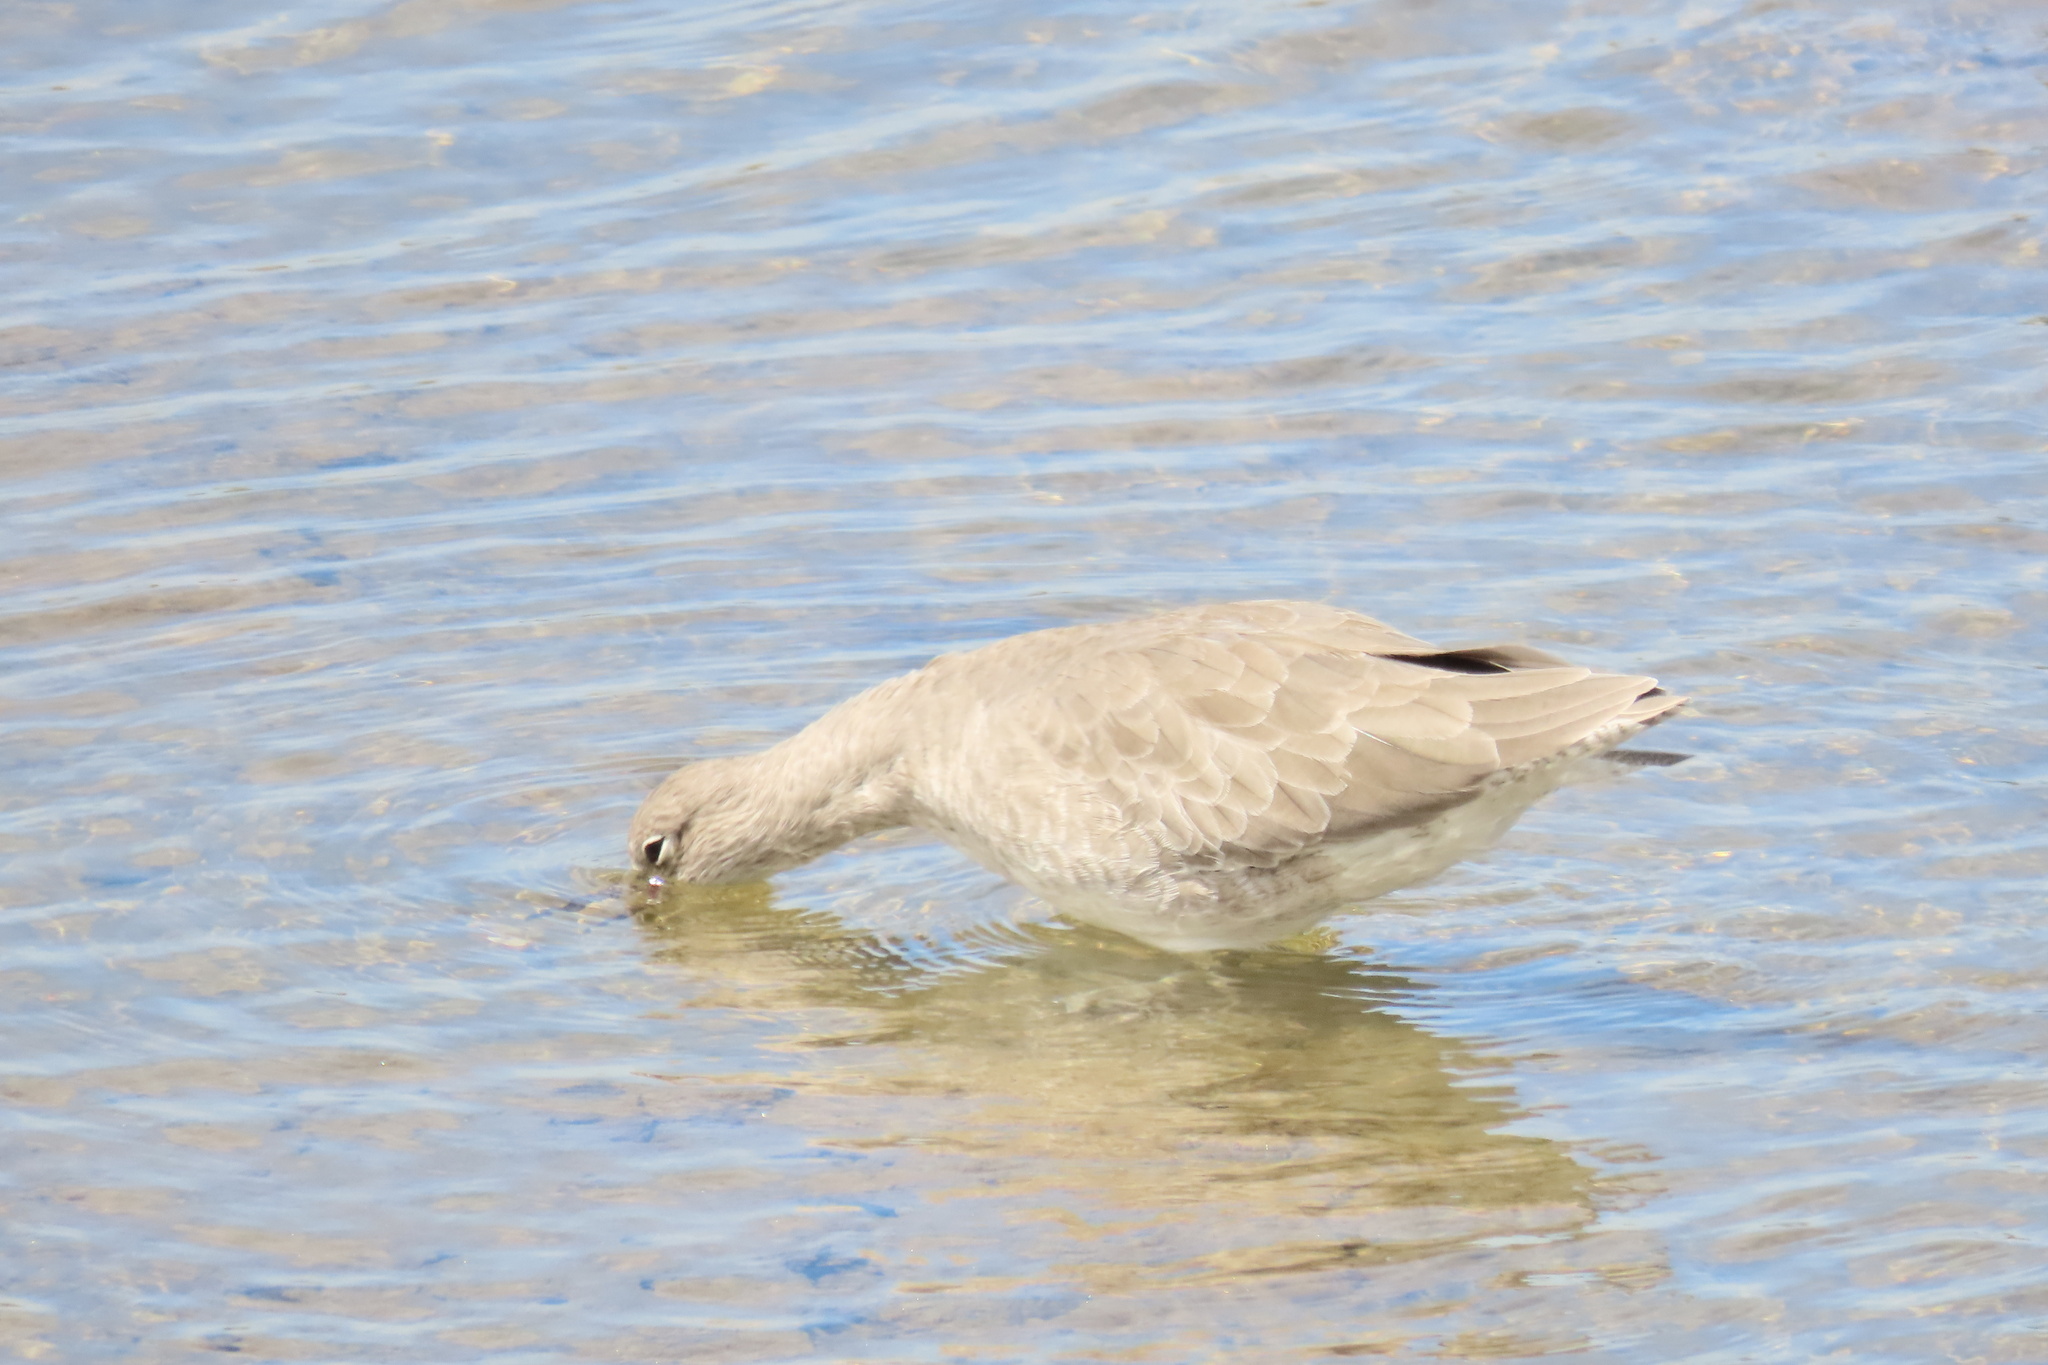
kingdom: Animalia
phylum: Chordata
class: Aves
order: Charadriiformes
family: Scolopacidae
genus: Tringa
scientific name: Tringa semipalmata
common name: Willet
